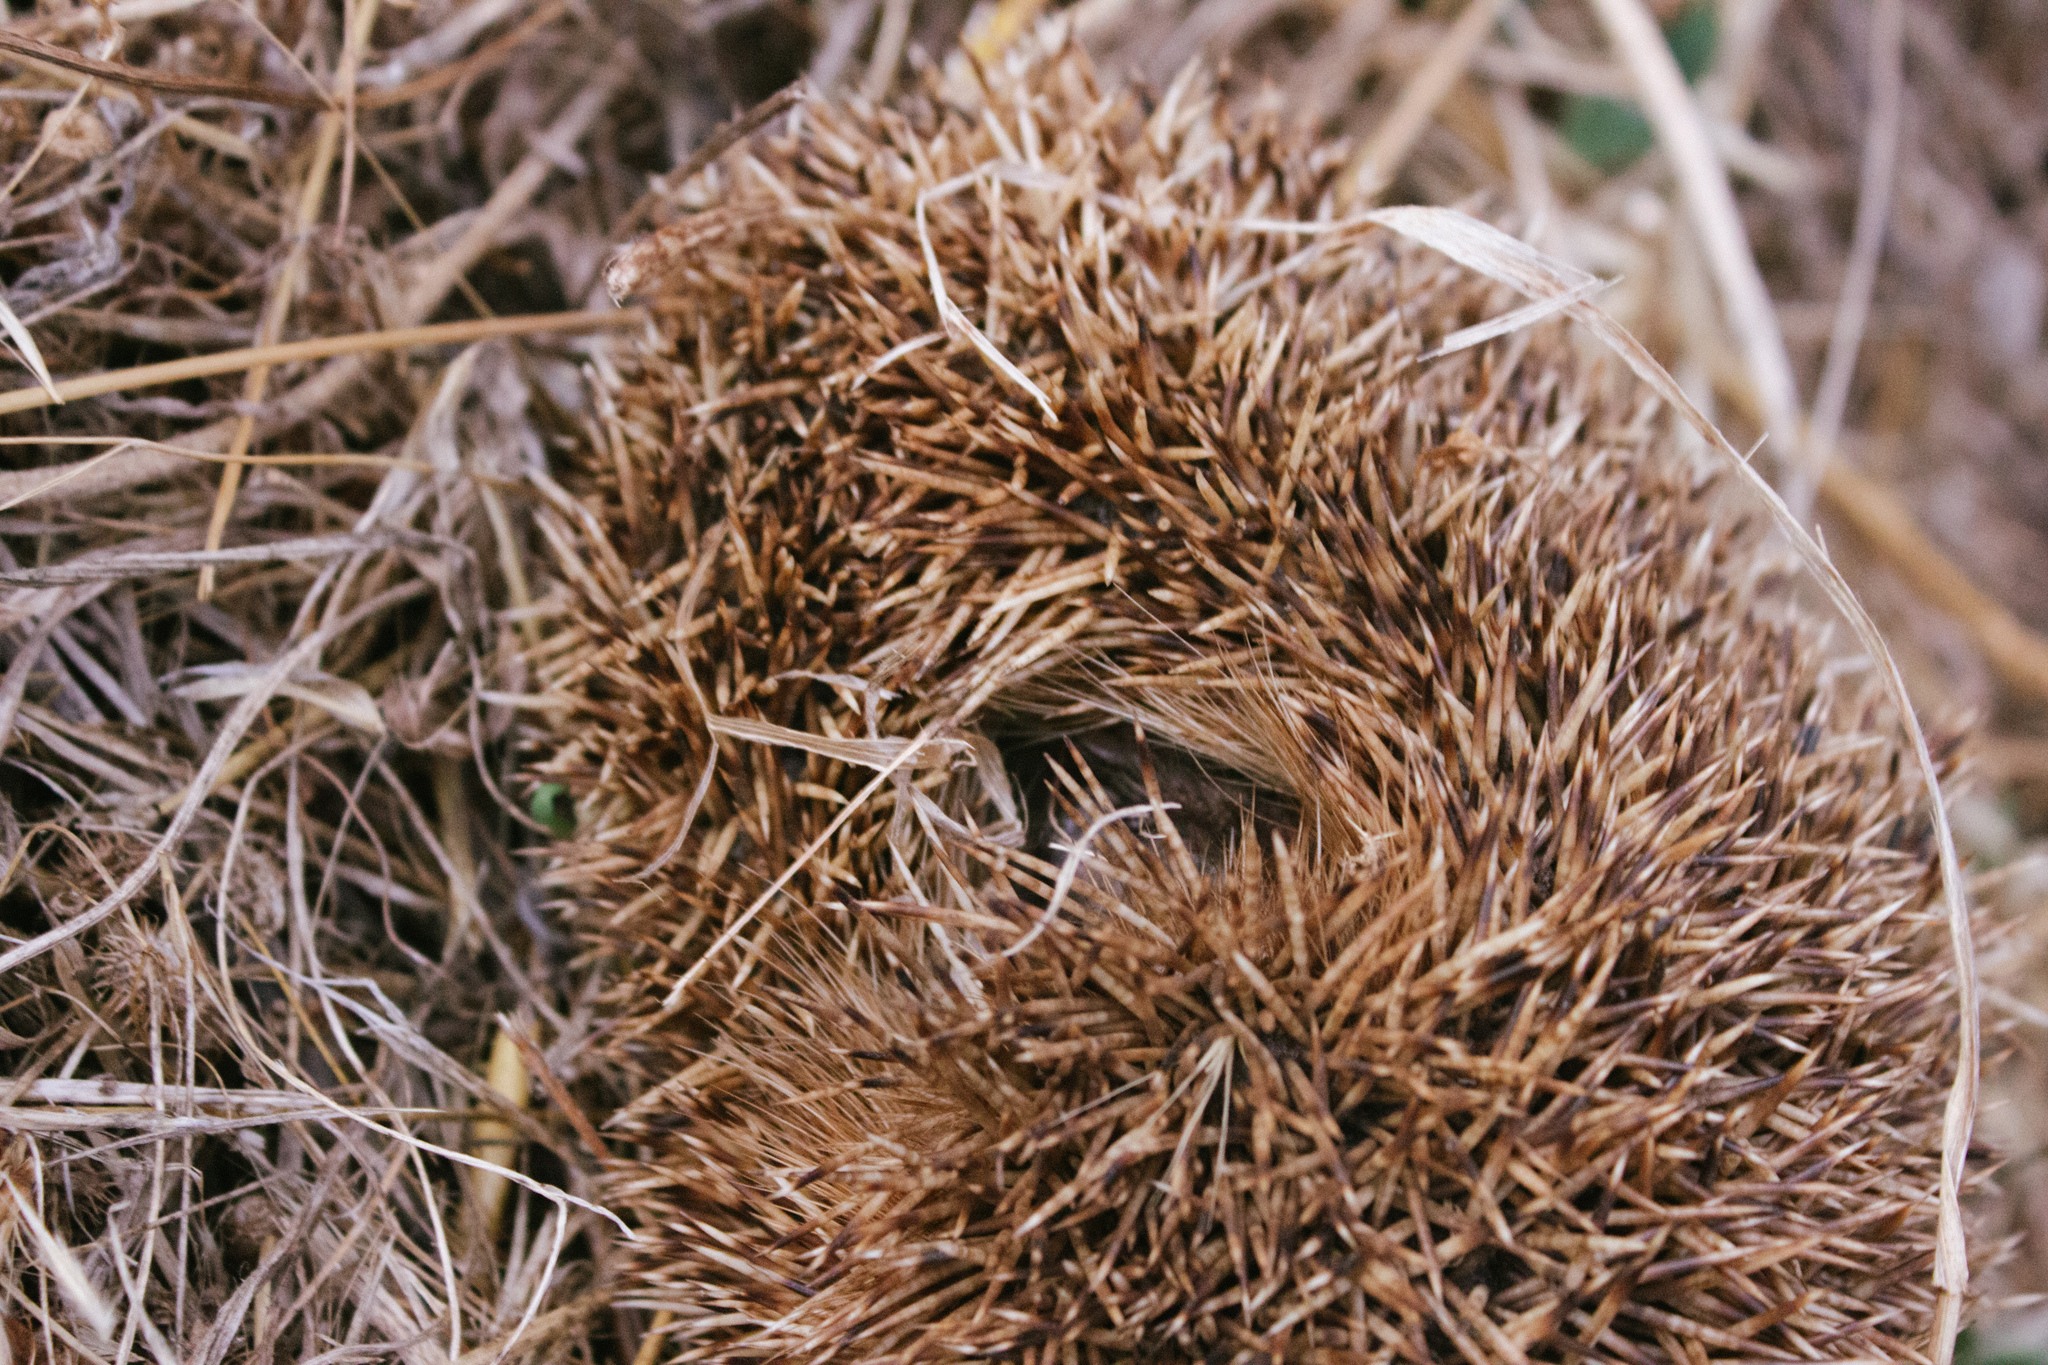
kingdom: Animalia
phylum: Chordata
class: Mammalia
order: Erinaceomorpha
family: Erinaceidae
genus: Erinaceus
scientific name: Erinaceus europaeus
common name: West european hedgehog
